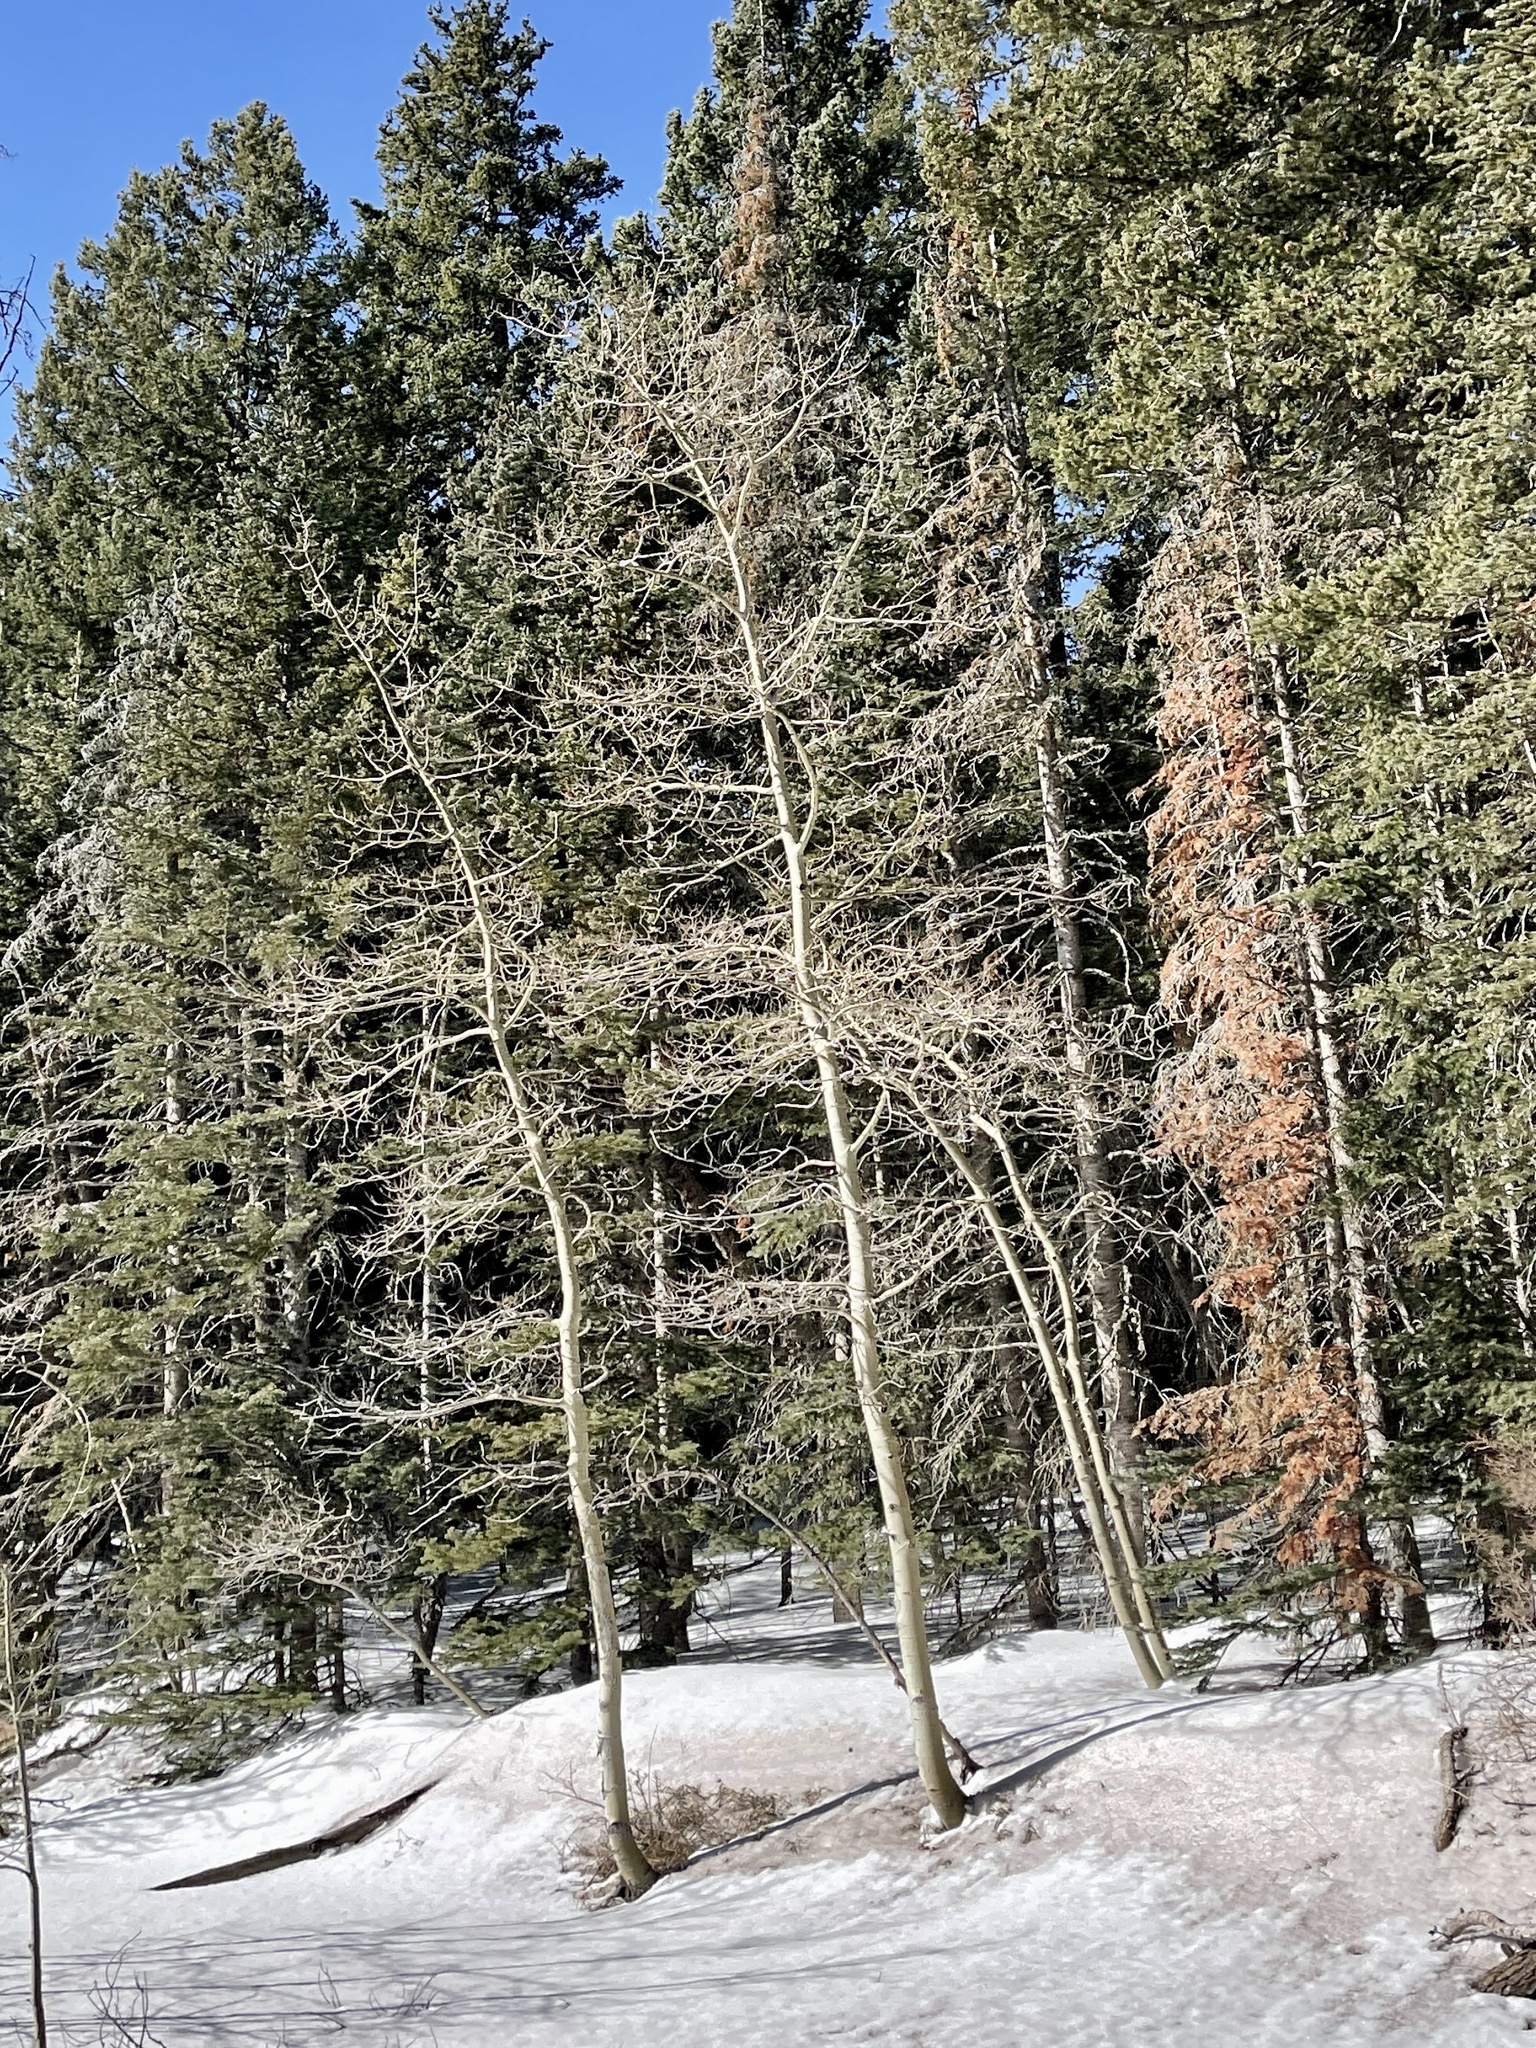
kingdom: Plantae
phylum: Tracheophyta
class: Magnoliopsida
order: Malpighiales
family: Salicaceae
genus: Populus
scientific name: Populus tremuloides
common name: Quaking aspen
